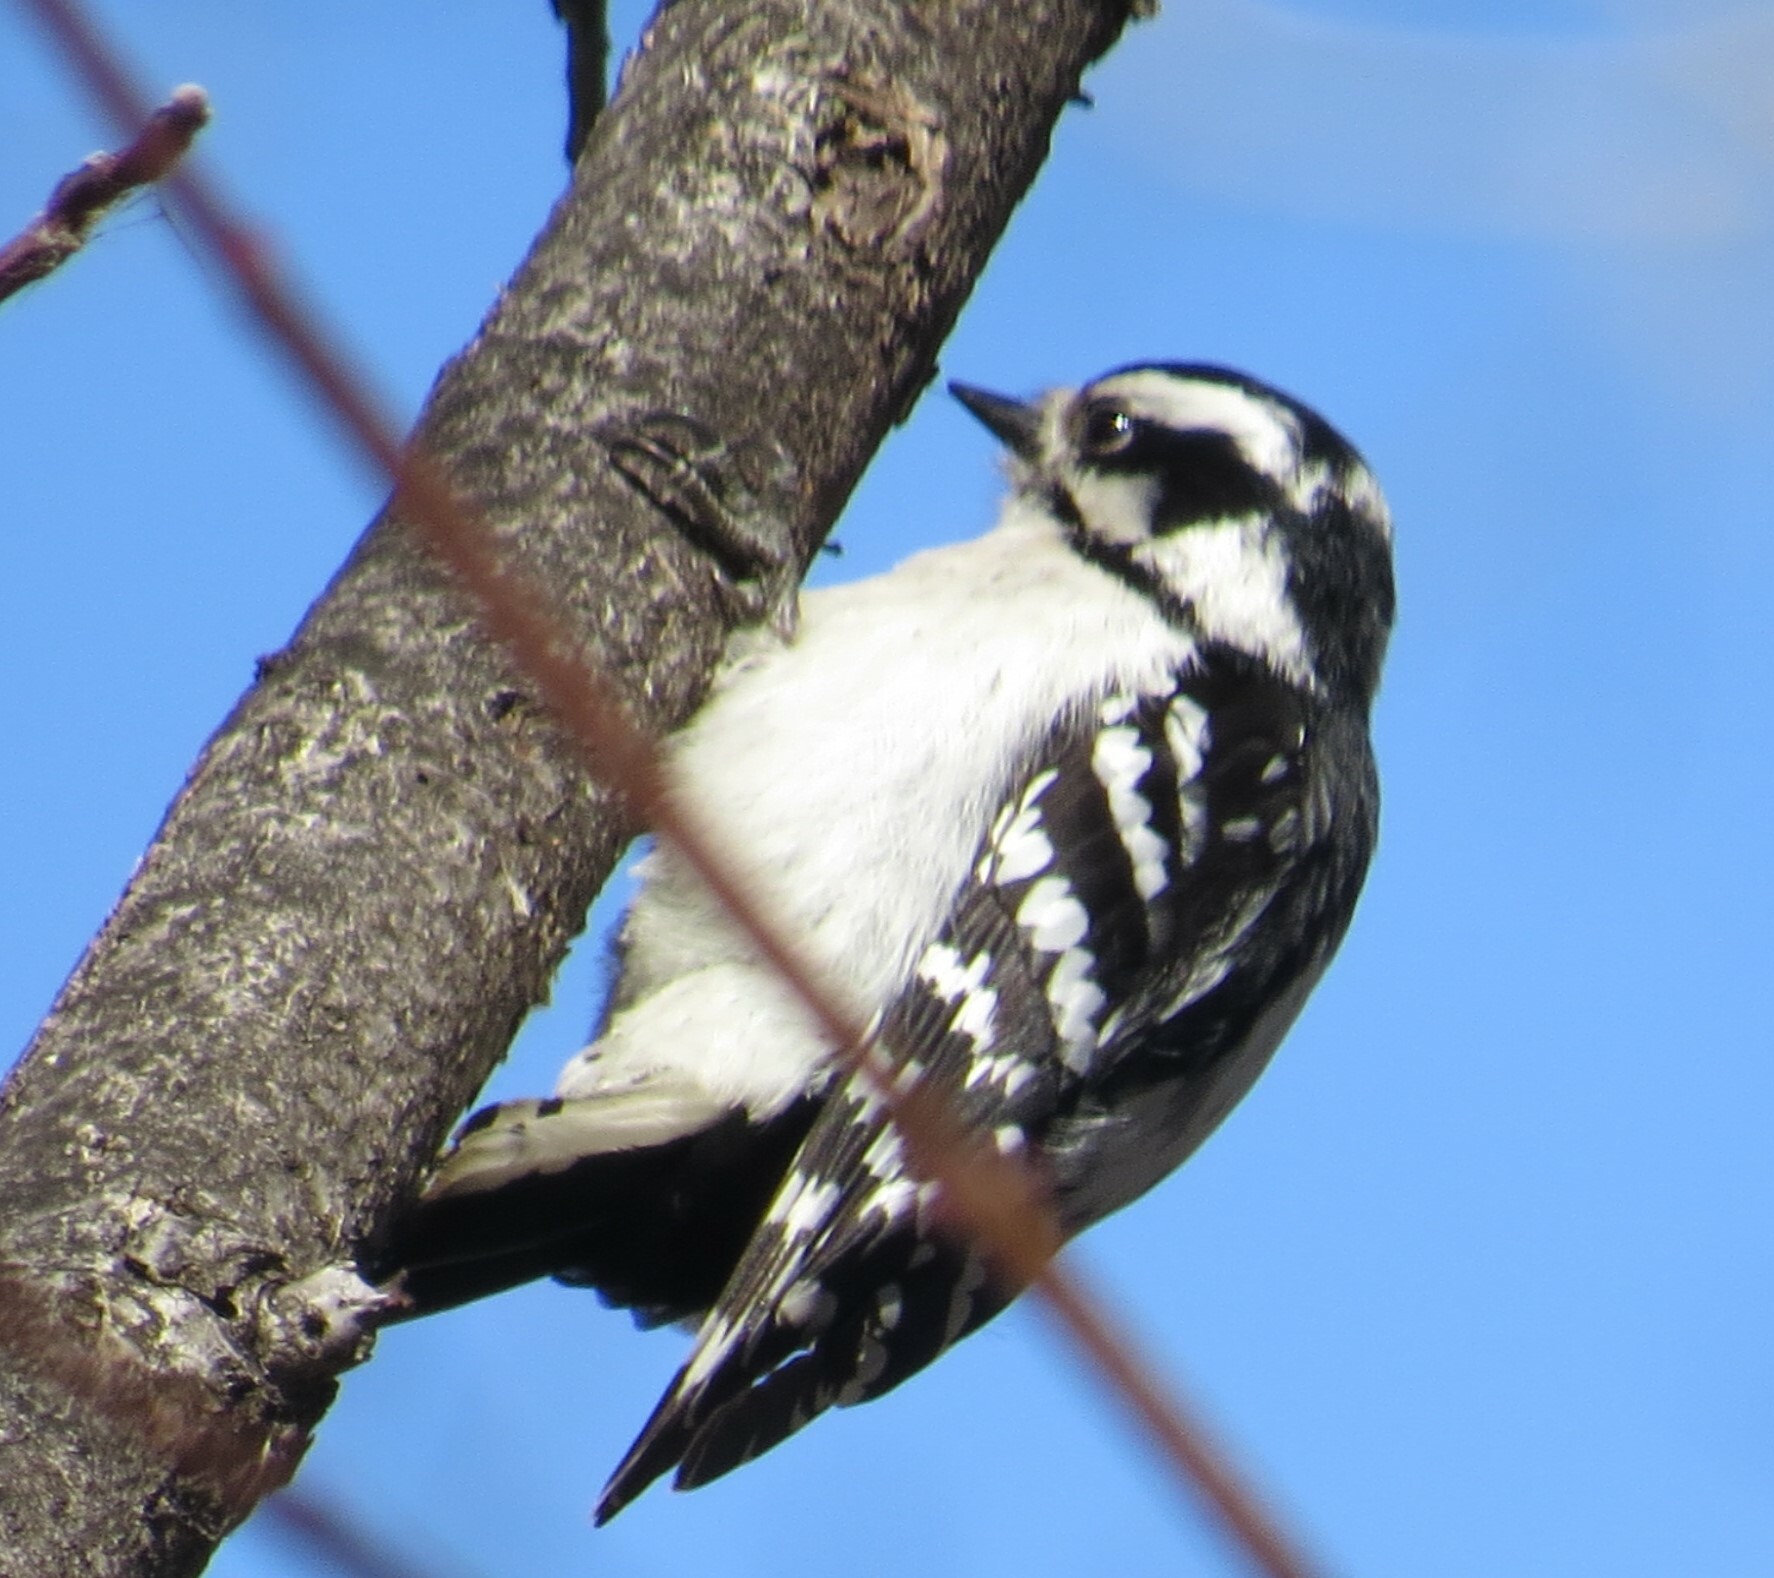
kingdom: Animalia
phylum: Chordata
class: Aves
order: Piciformes
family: Picidae
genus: Dryobates
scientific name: Dryobates pubescens
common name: Downy woodpecker
